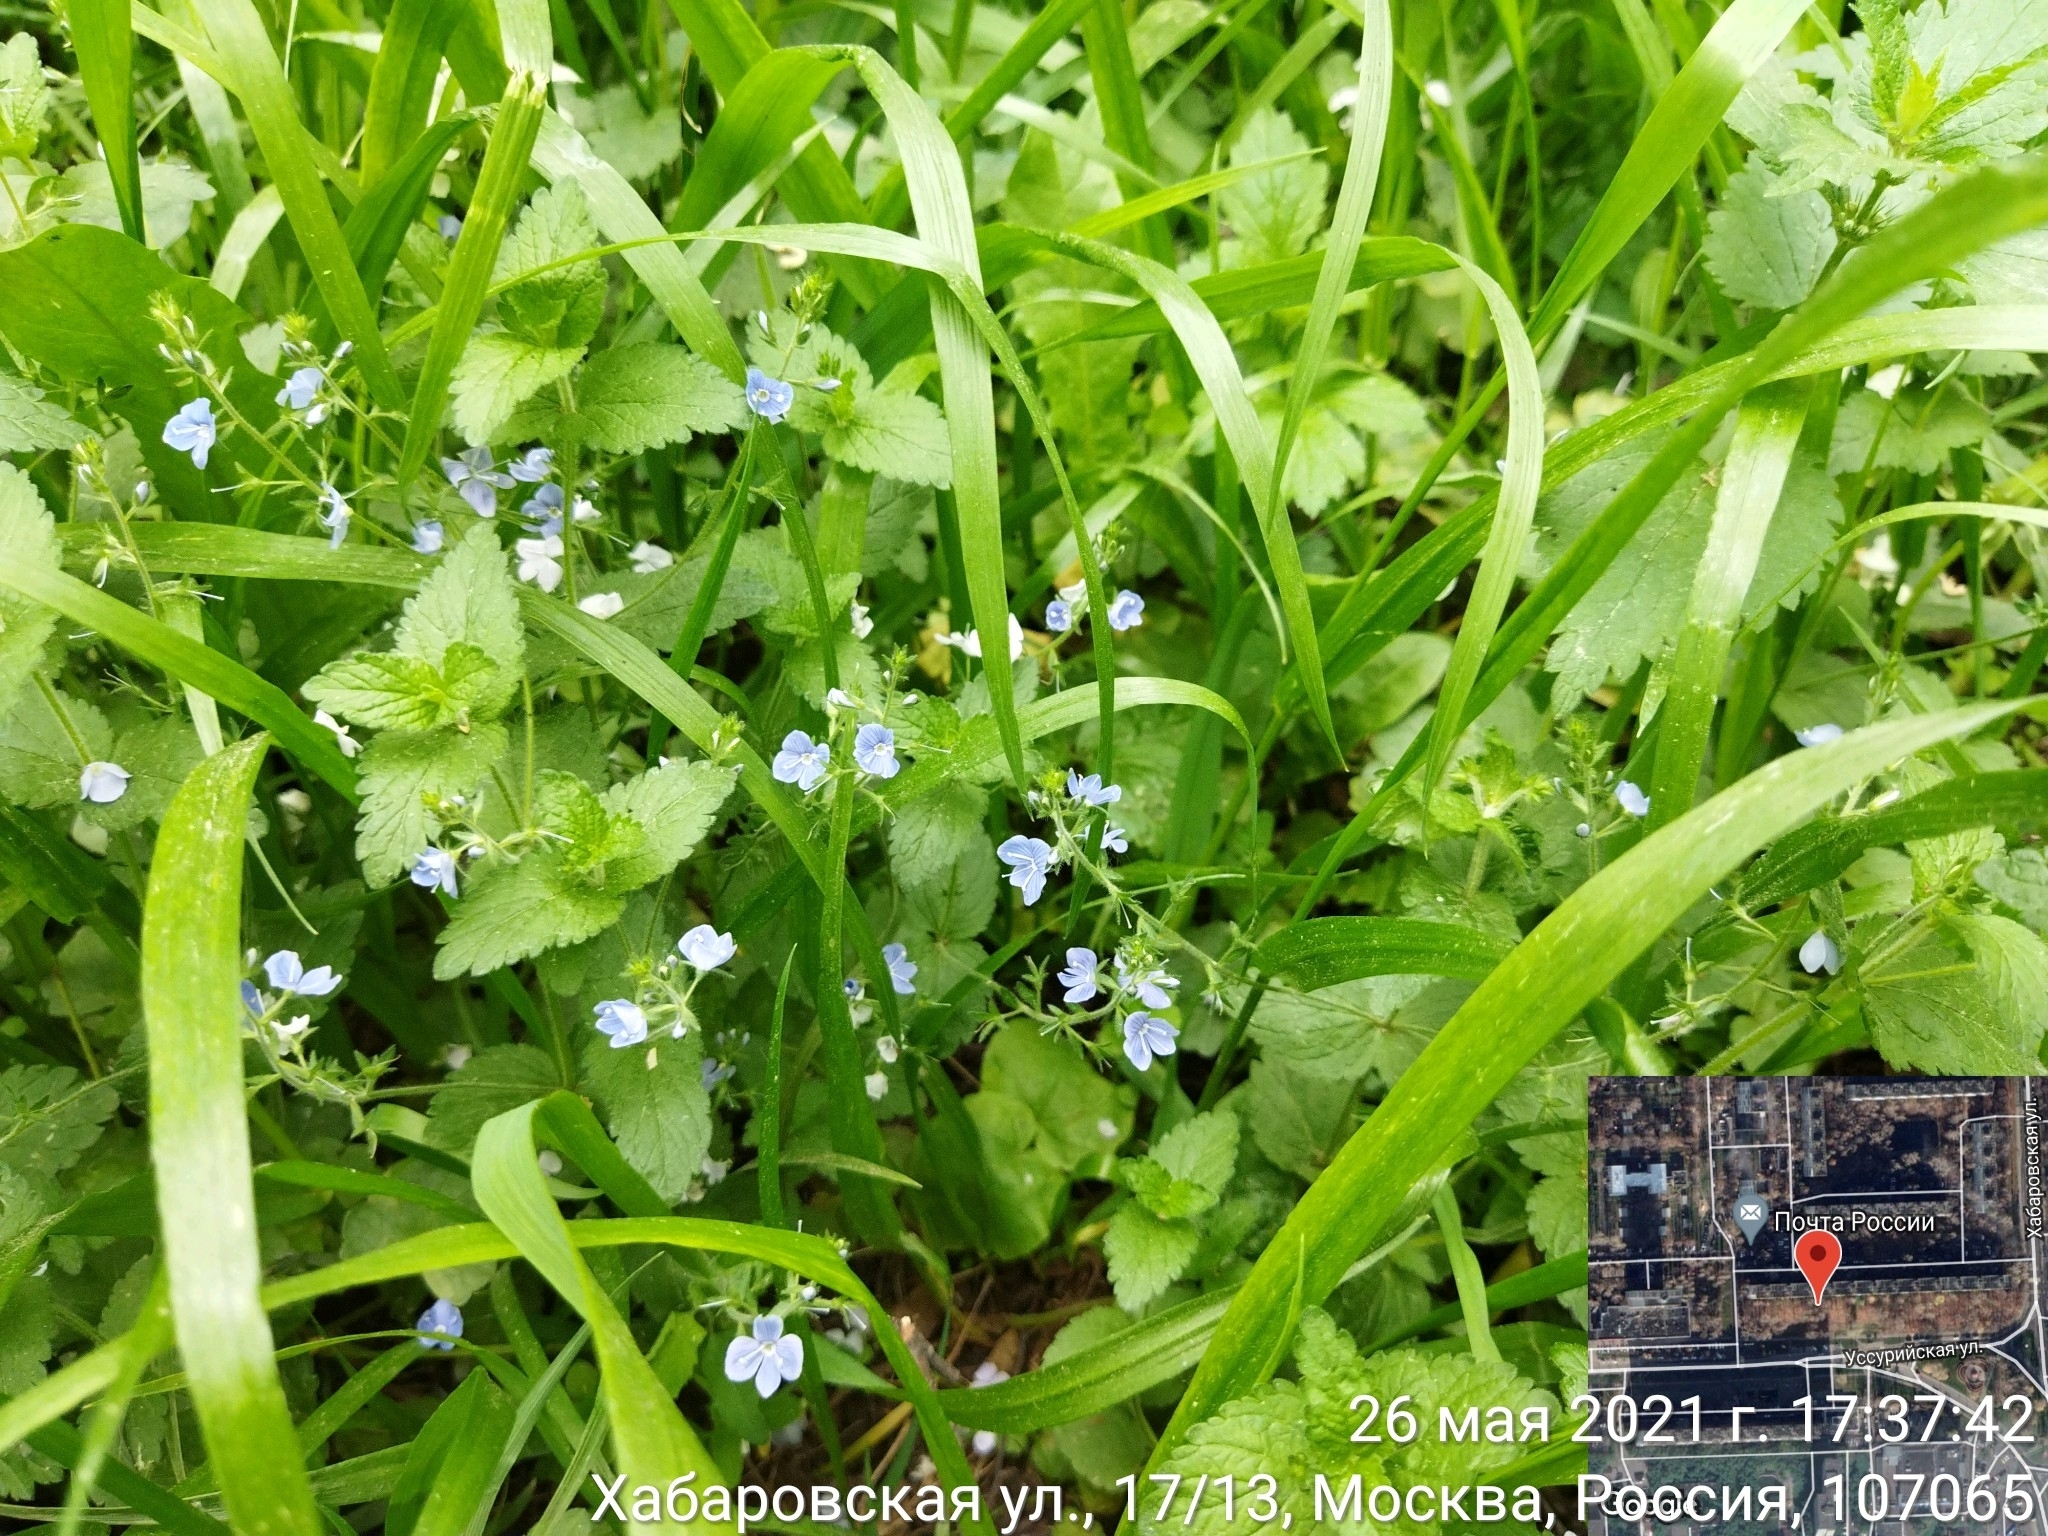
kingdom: Plantae
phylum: Tracheophyta
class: Magnoliopsida
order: Lamiales
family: Plantaginaceae
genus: Veronica
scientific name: Veronica chamaedrys
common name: Germander speedwell
